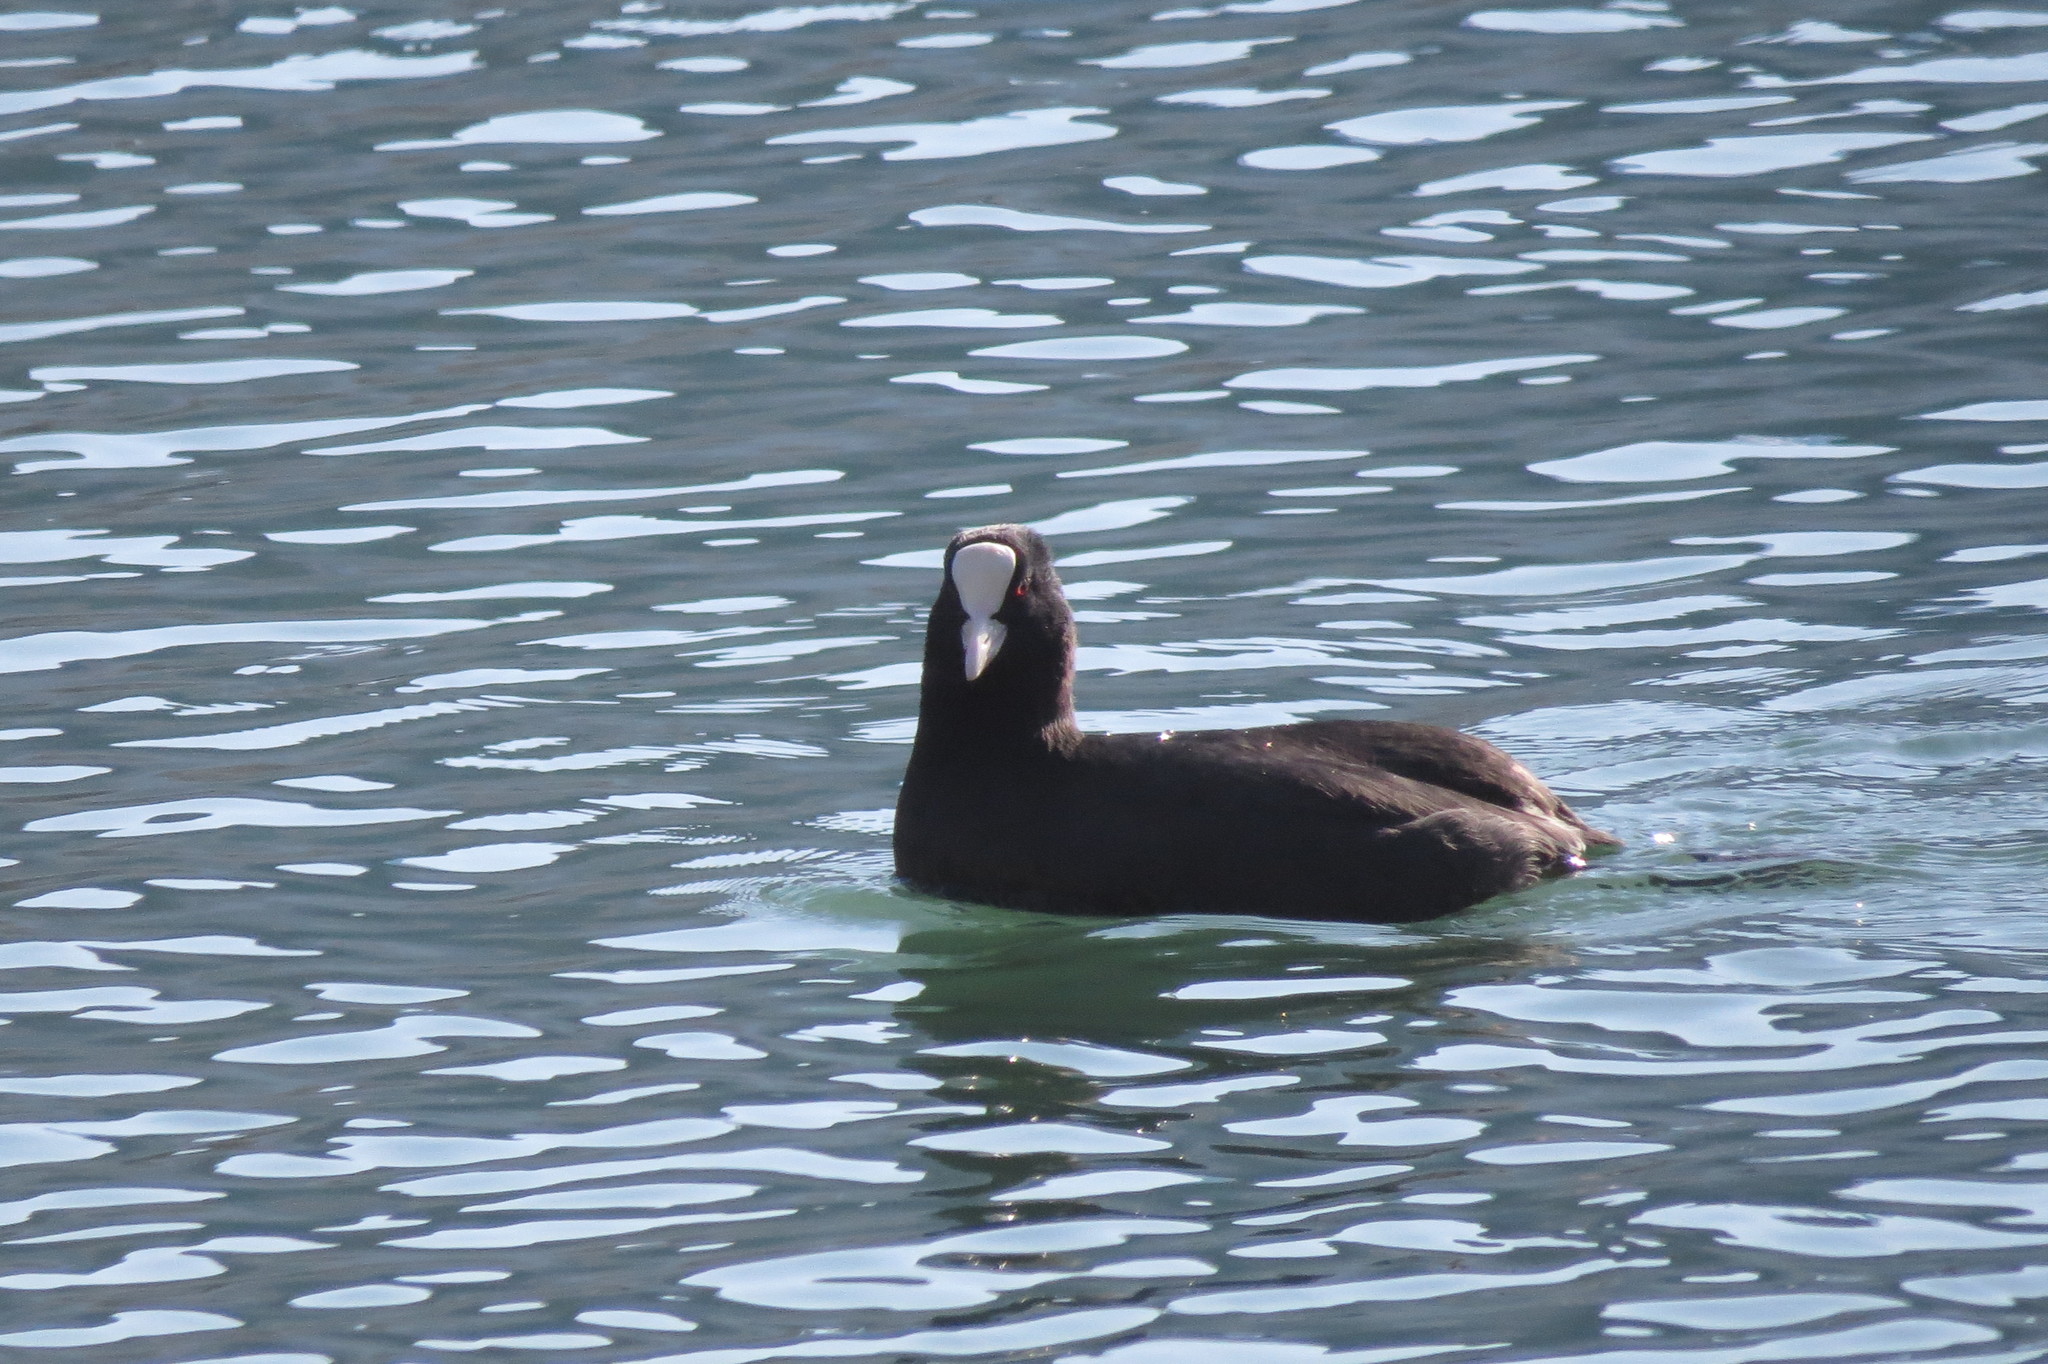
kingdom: Animalia
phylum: Chordata
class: Aves
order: Gruiformes
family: Rallidae
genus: Fulica
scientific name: Fulica atra
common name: Eurasian coot
